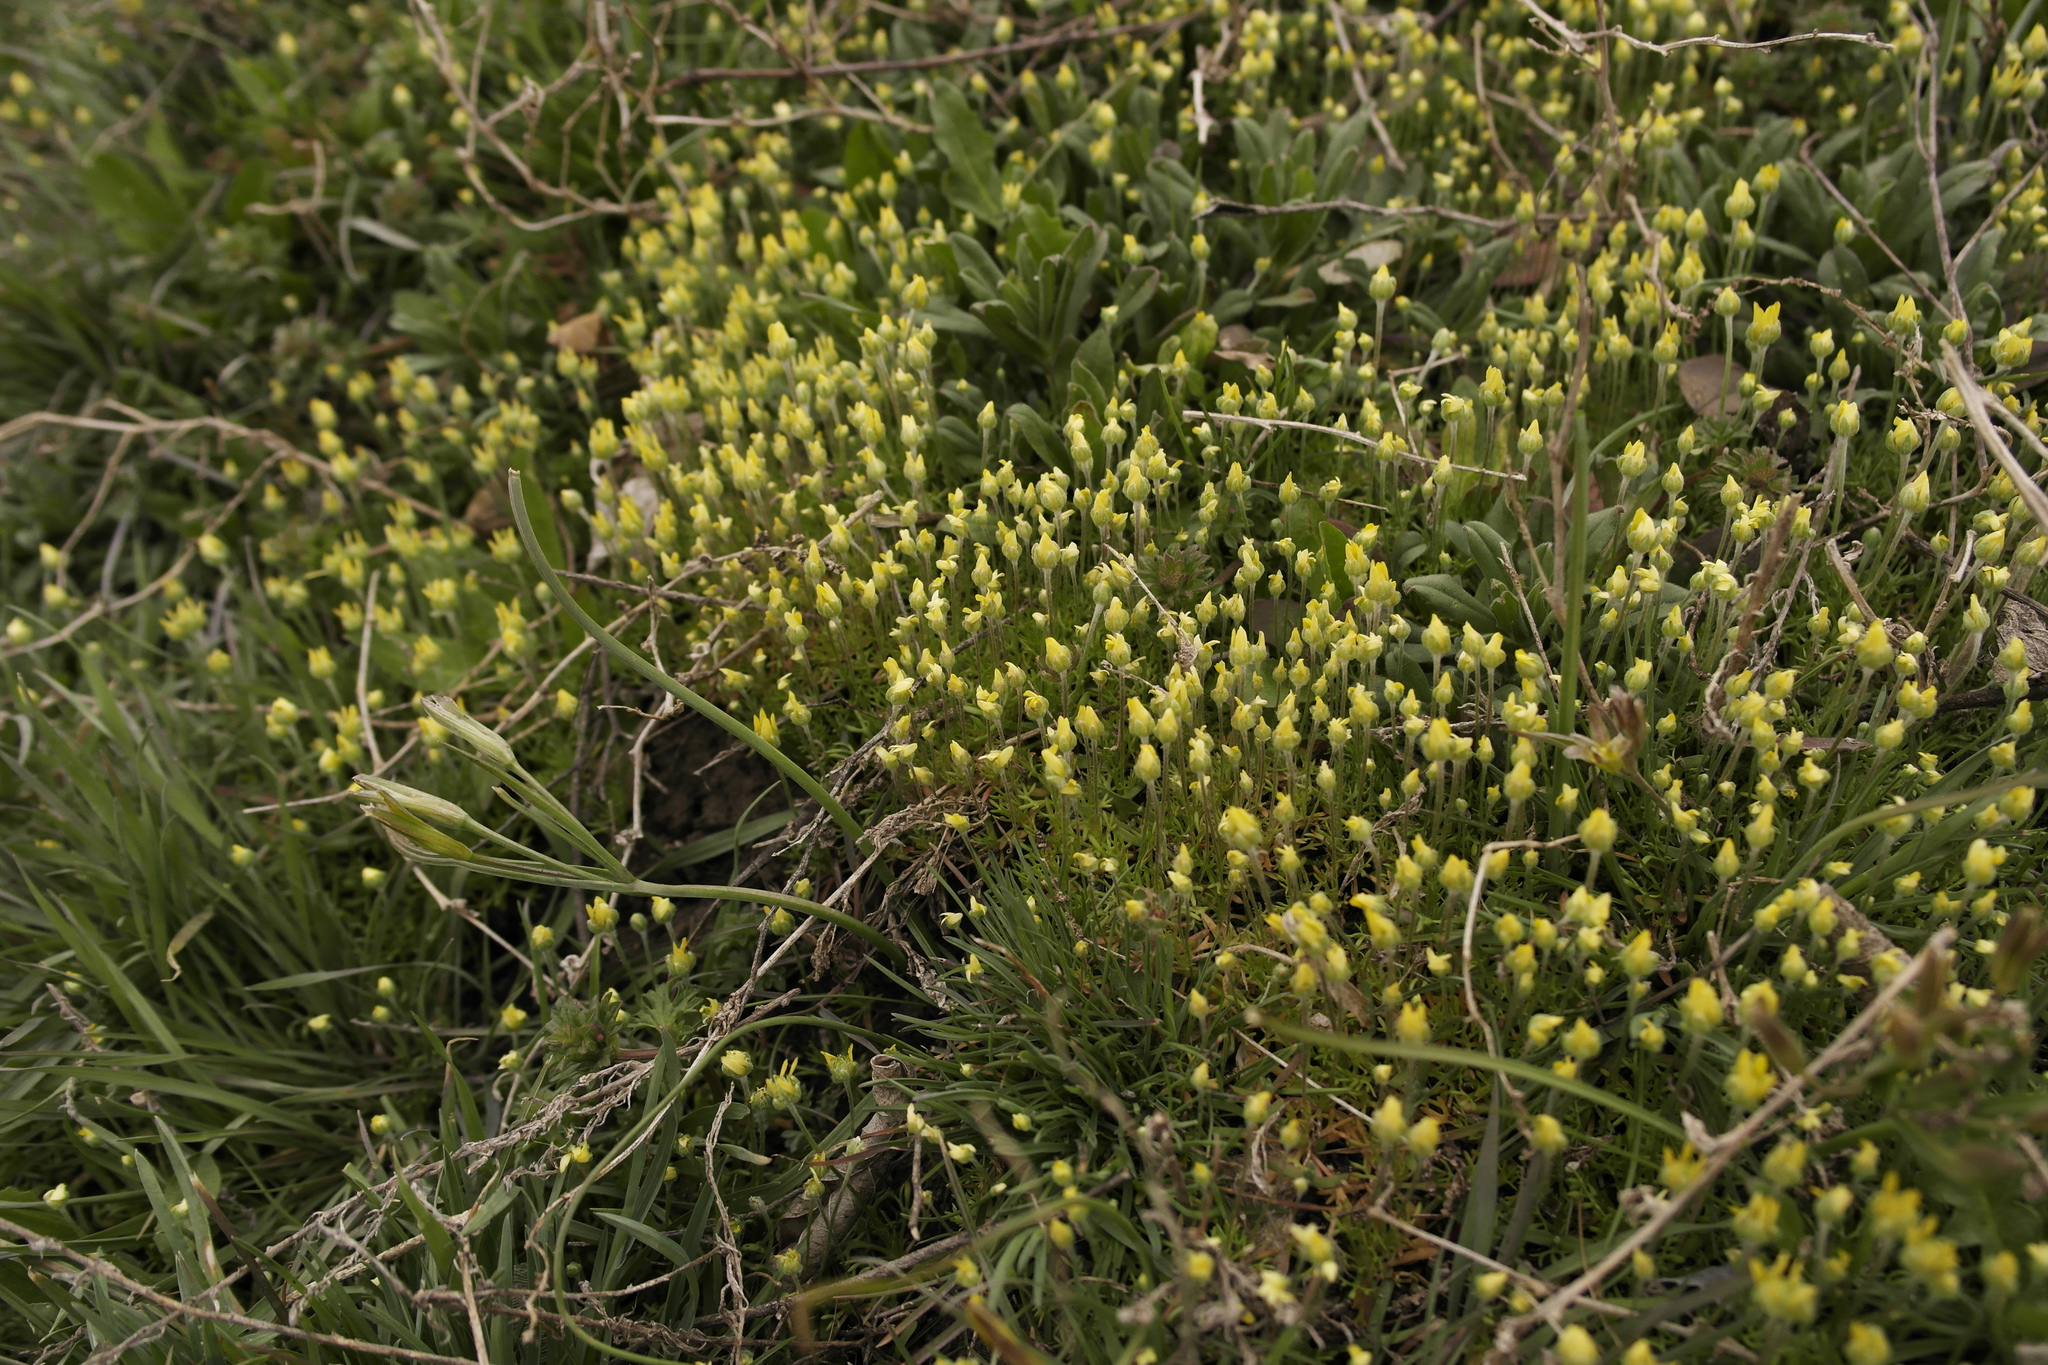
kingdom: Plantae
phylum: Tracheophyta
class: Magnoliopsida
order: Ranunculales
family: Ranunculaceae
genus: Ceratocephala
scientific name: Ceratocephala orthoceras
